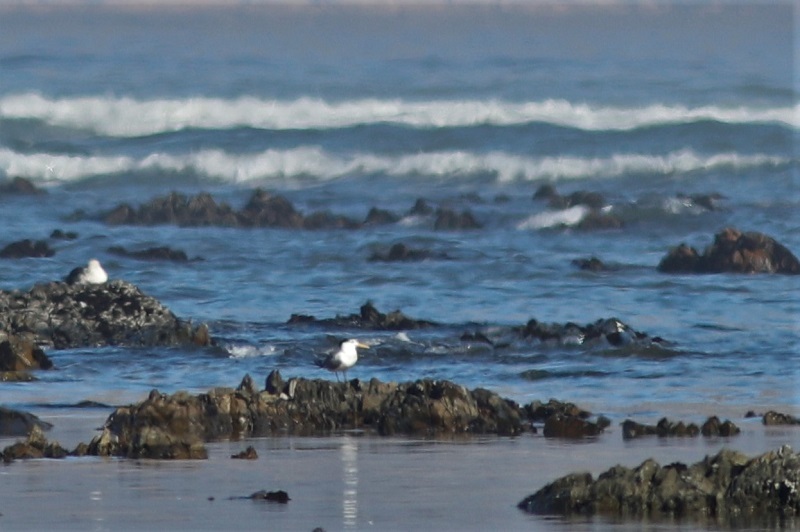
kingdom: Animalia
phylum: Chordata
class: Aves
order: Charadriiformes
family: Laridae
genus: Thalasseus
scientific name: Thalasseus bergii
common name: Greater crested tern
